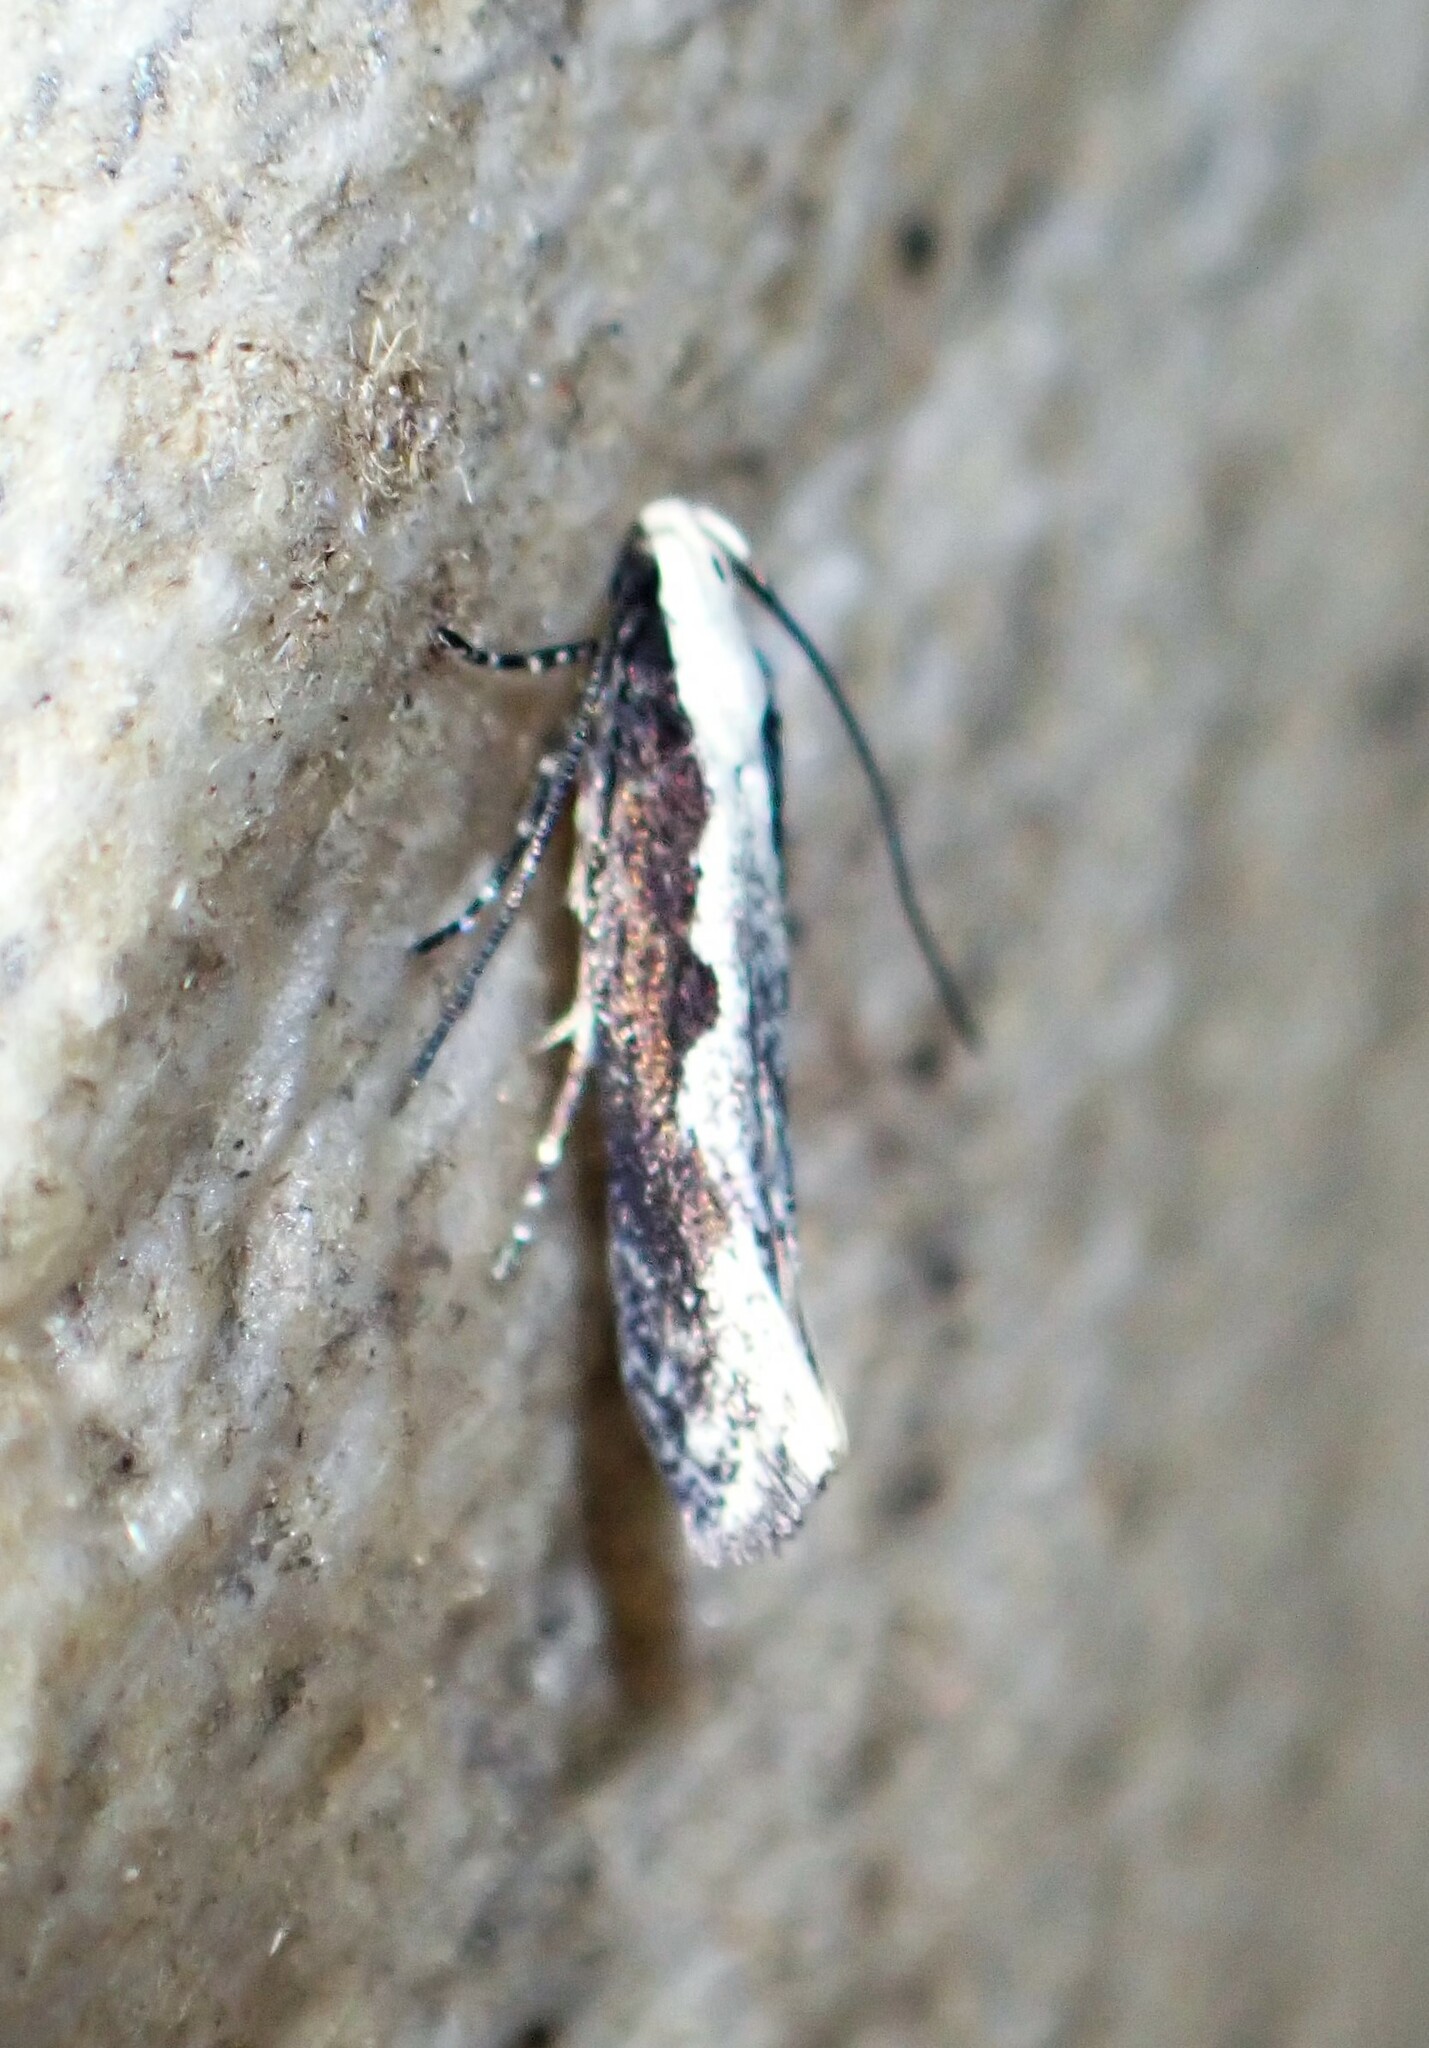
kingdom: Animalia
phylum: Arthropoda
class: Insecta
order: Lepidoptera
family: Gelechiidae
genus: Agnippe
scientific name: Agnippe prunifoliella
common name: Skunk twirler
